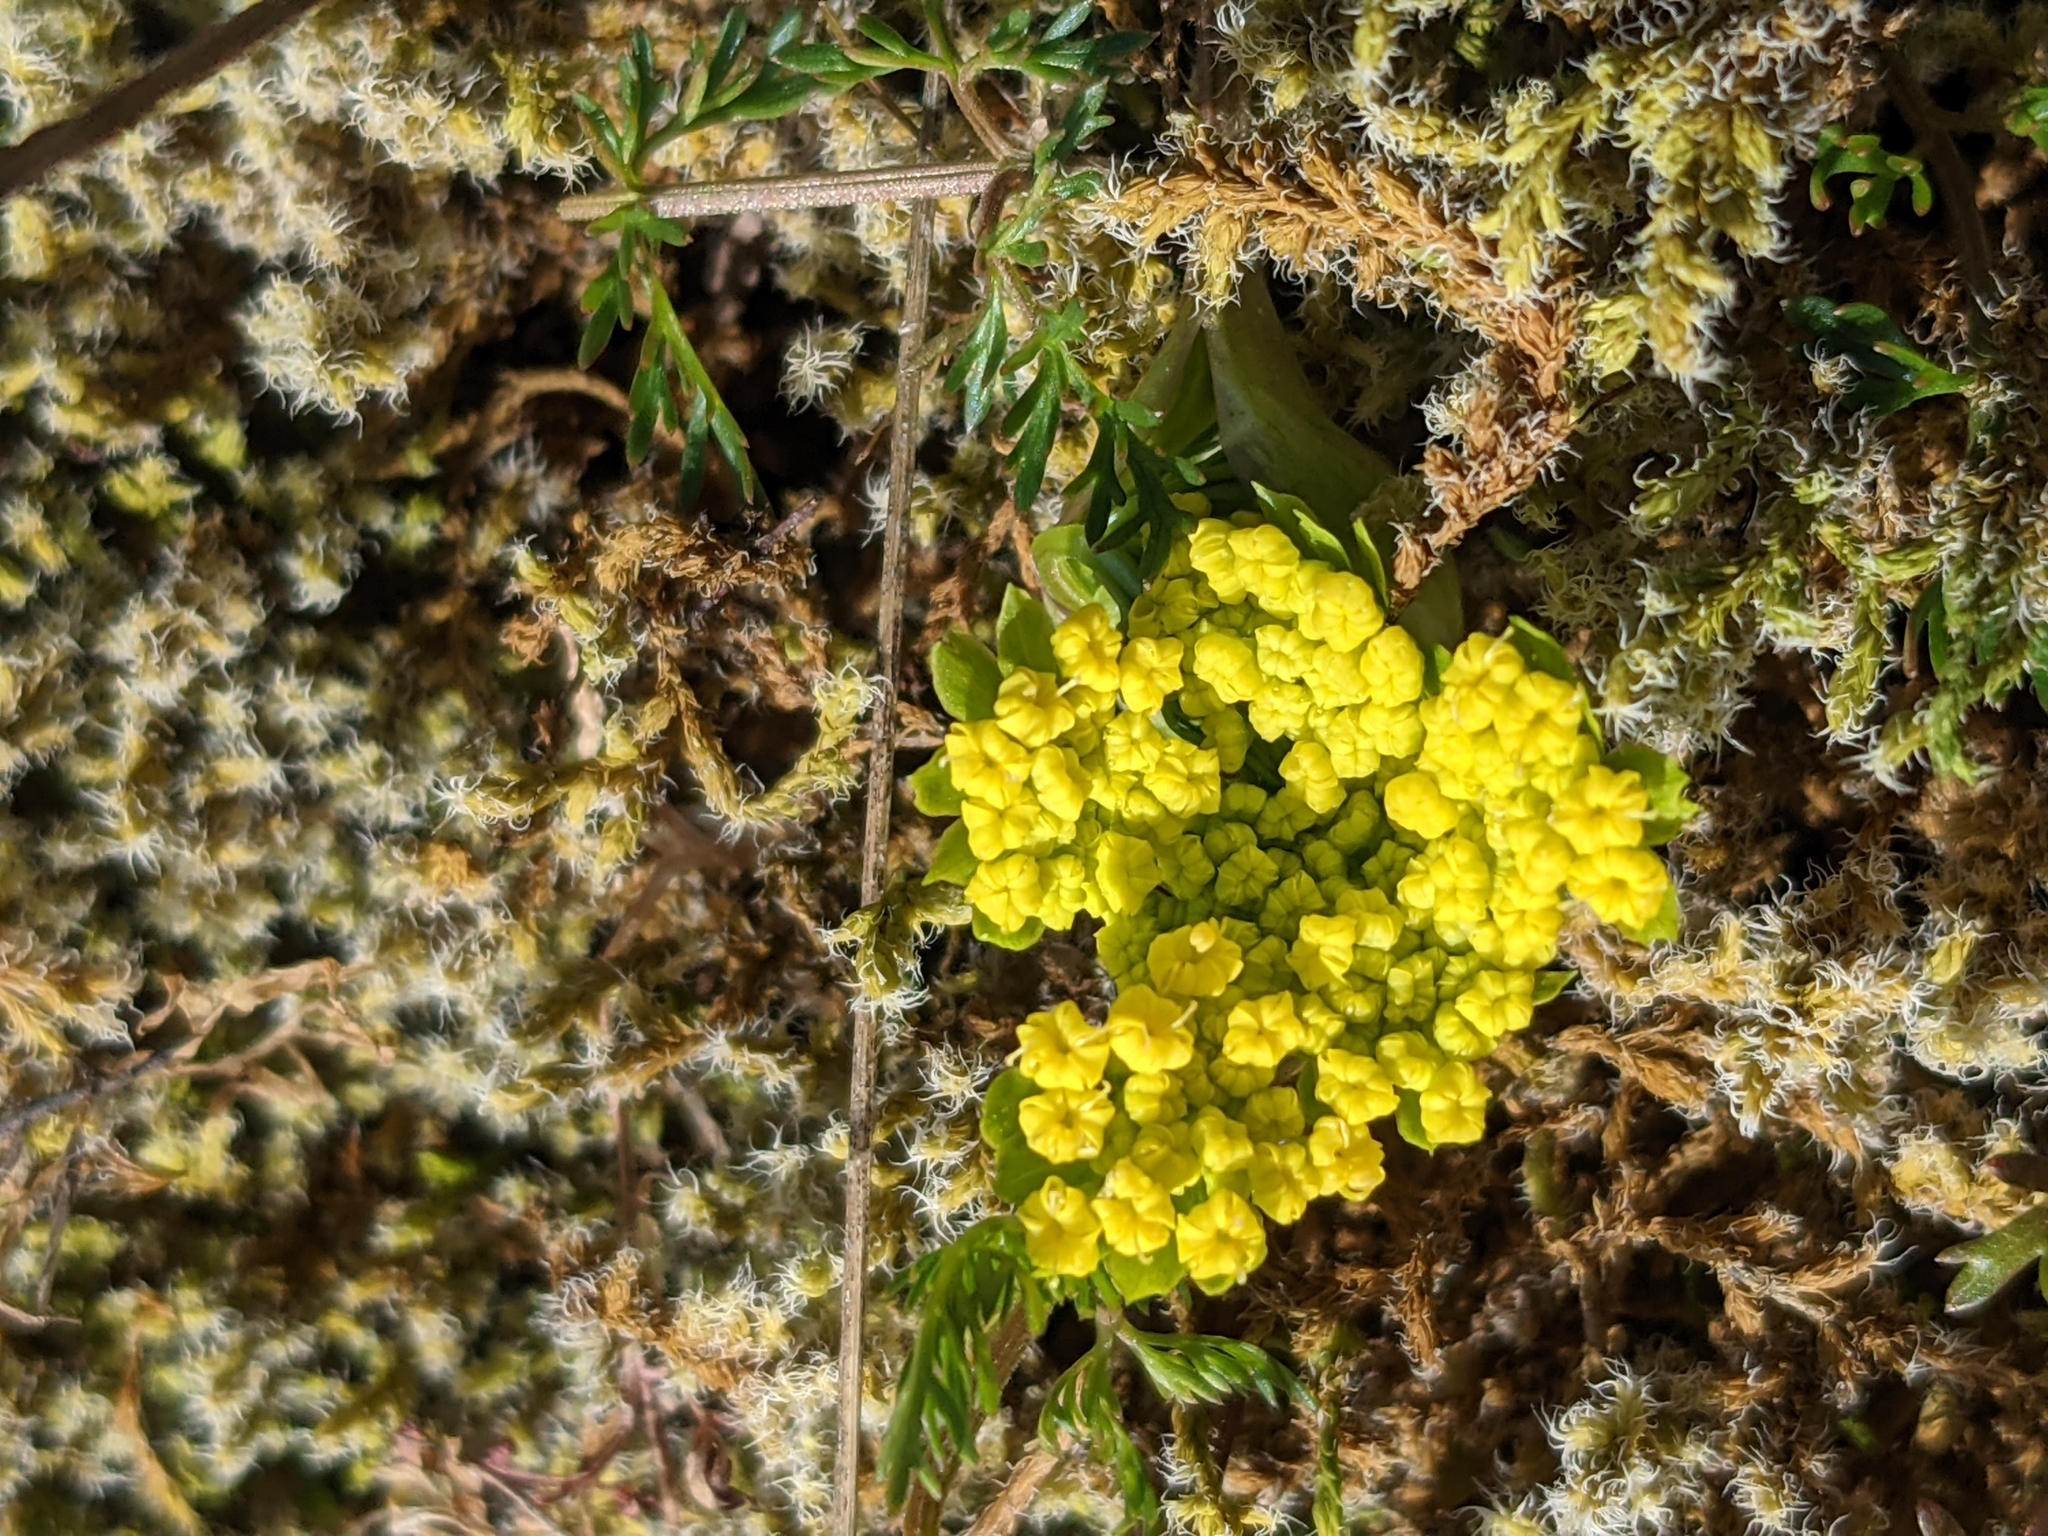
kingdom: Plantae
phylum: Tracheophyta
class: Magnoliopsida
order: Apiales
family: Apiaceae
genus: Lomatium
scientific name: Lomatium utriculatum
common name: Fine-leaf desert-parsley
